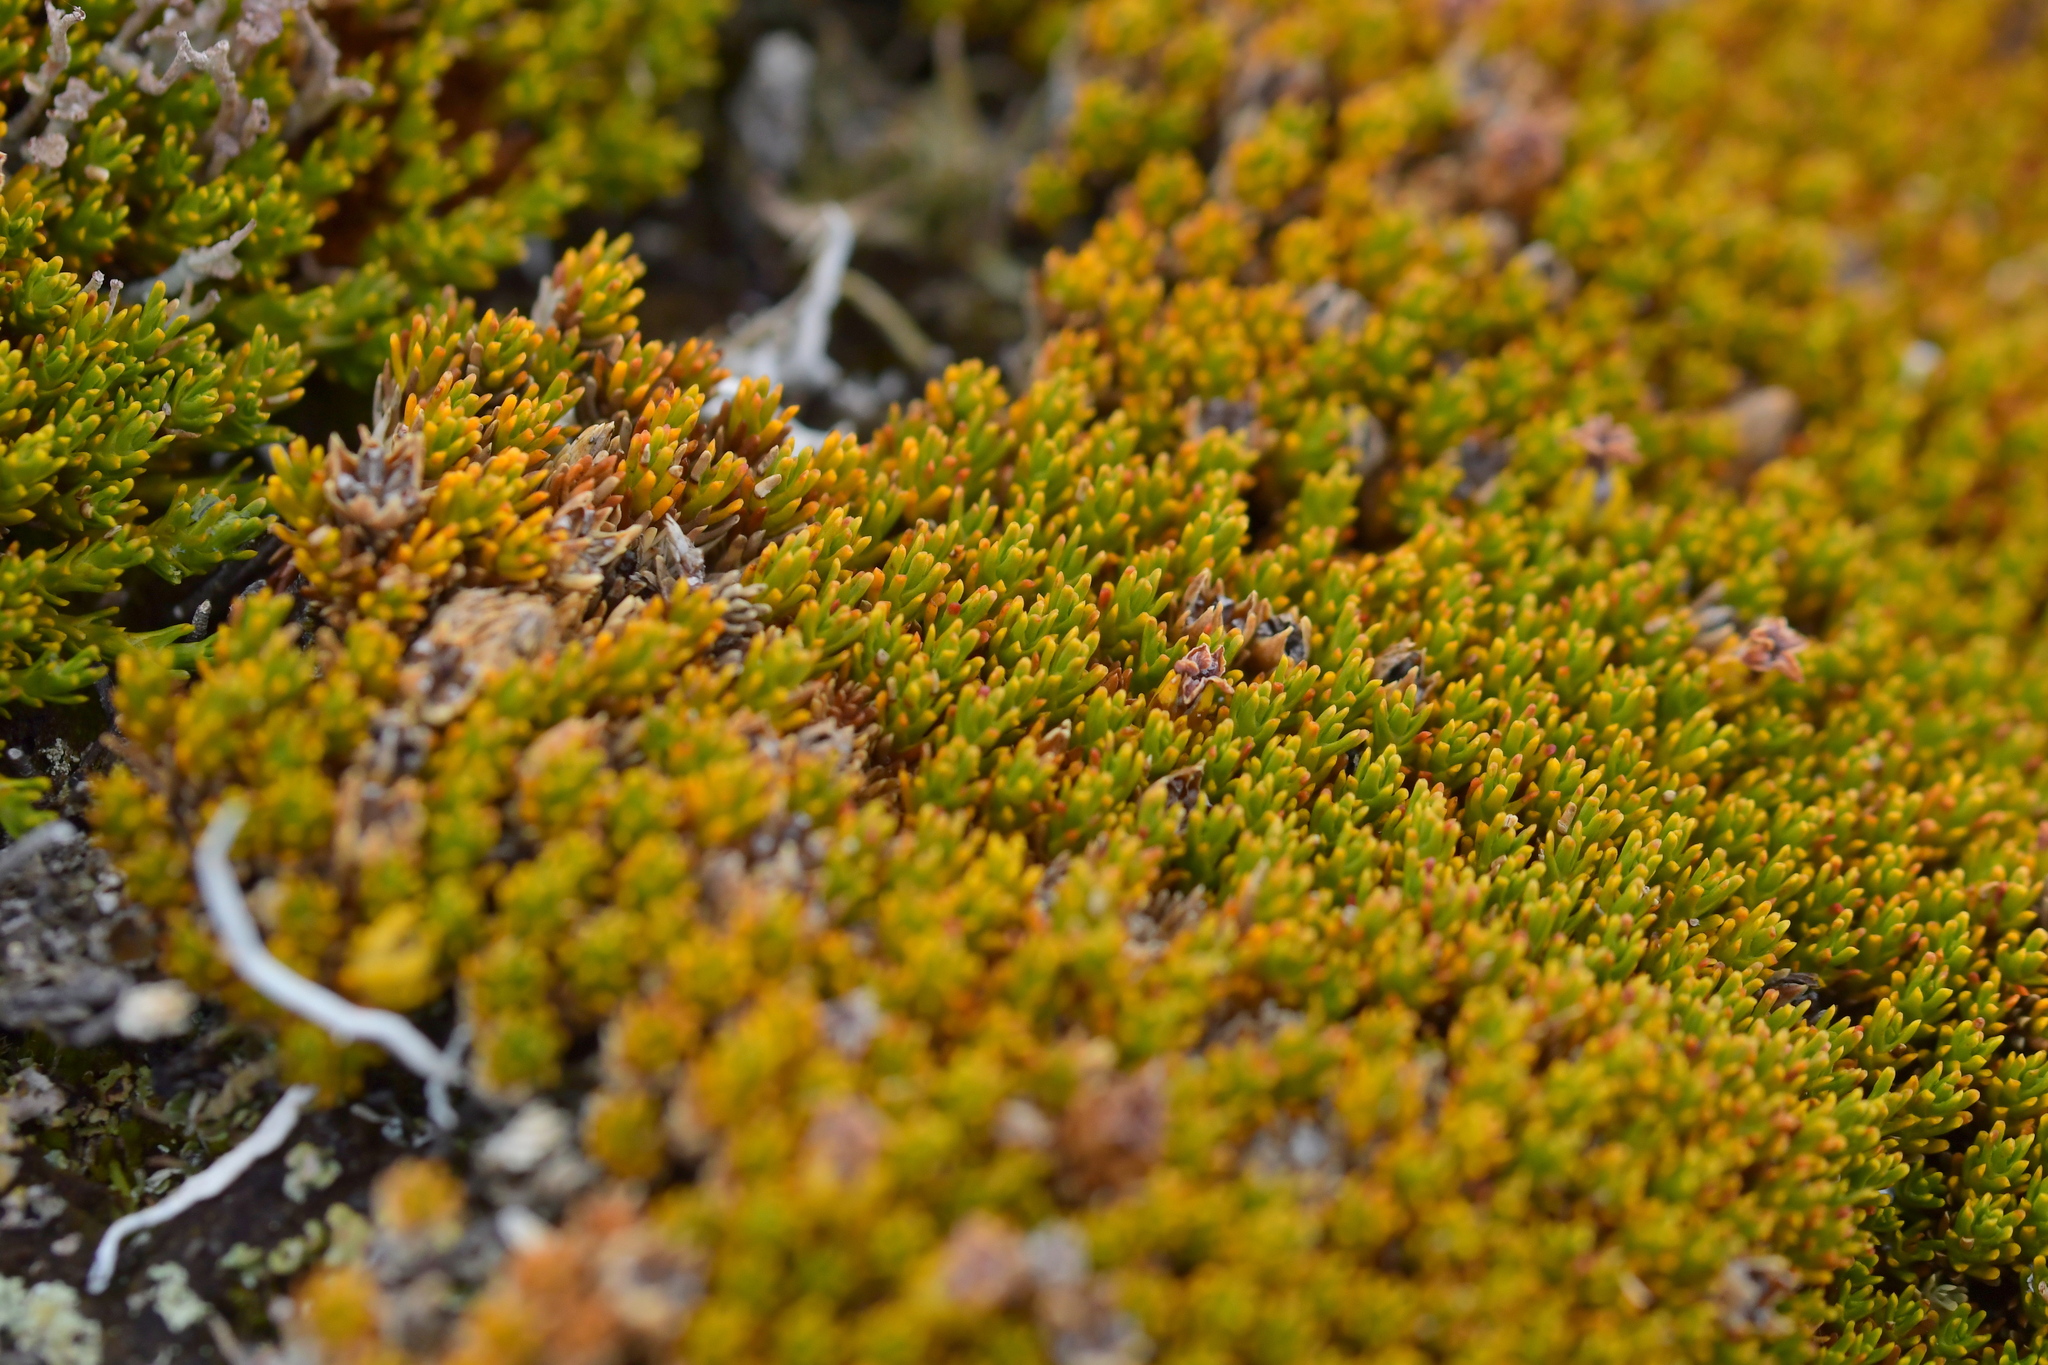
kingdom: Plantae
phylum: Tracheophyta
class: Magnoliopsida
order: Ericales
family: Ericaceae
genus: Dracophyllum
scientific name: Dracophyllum muscoides
